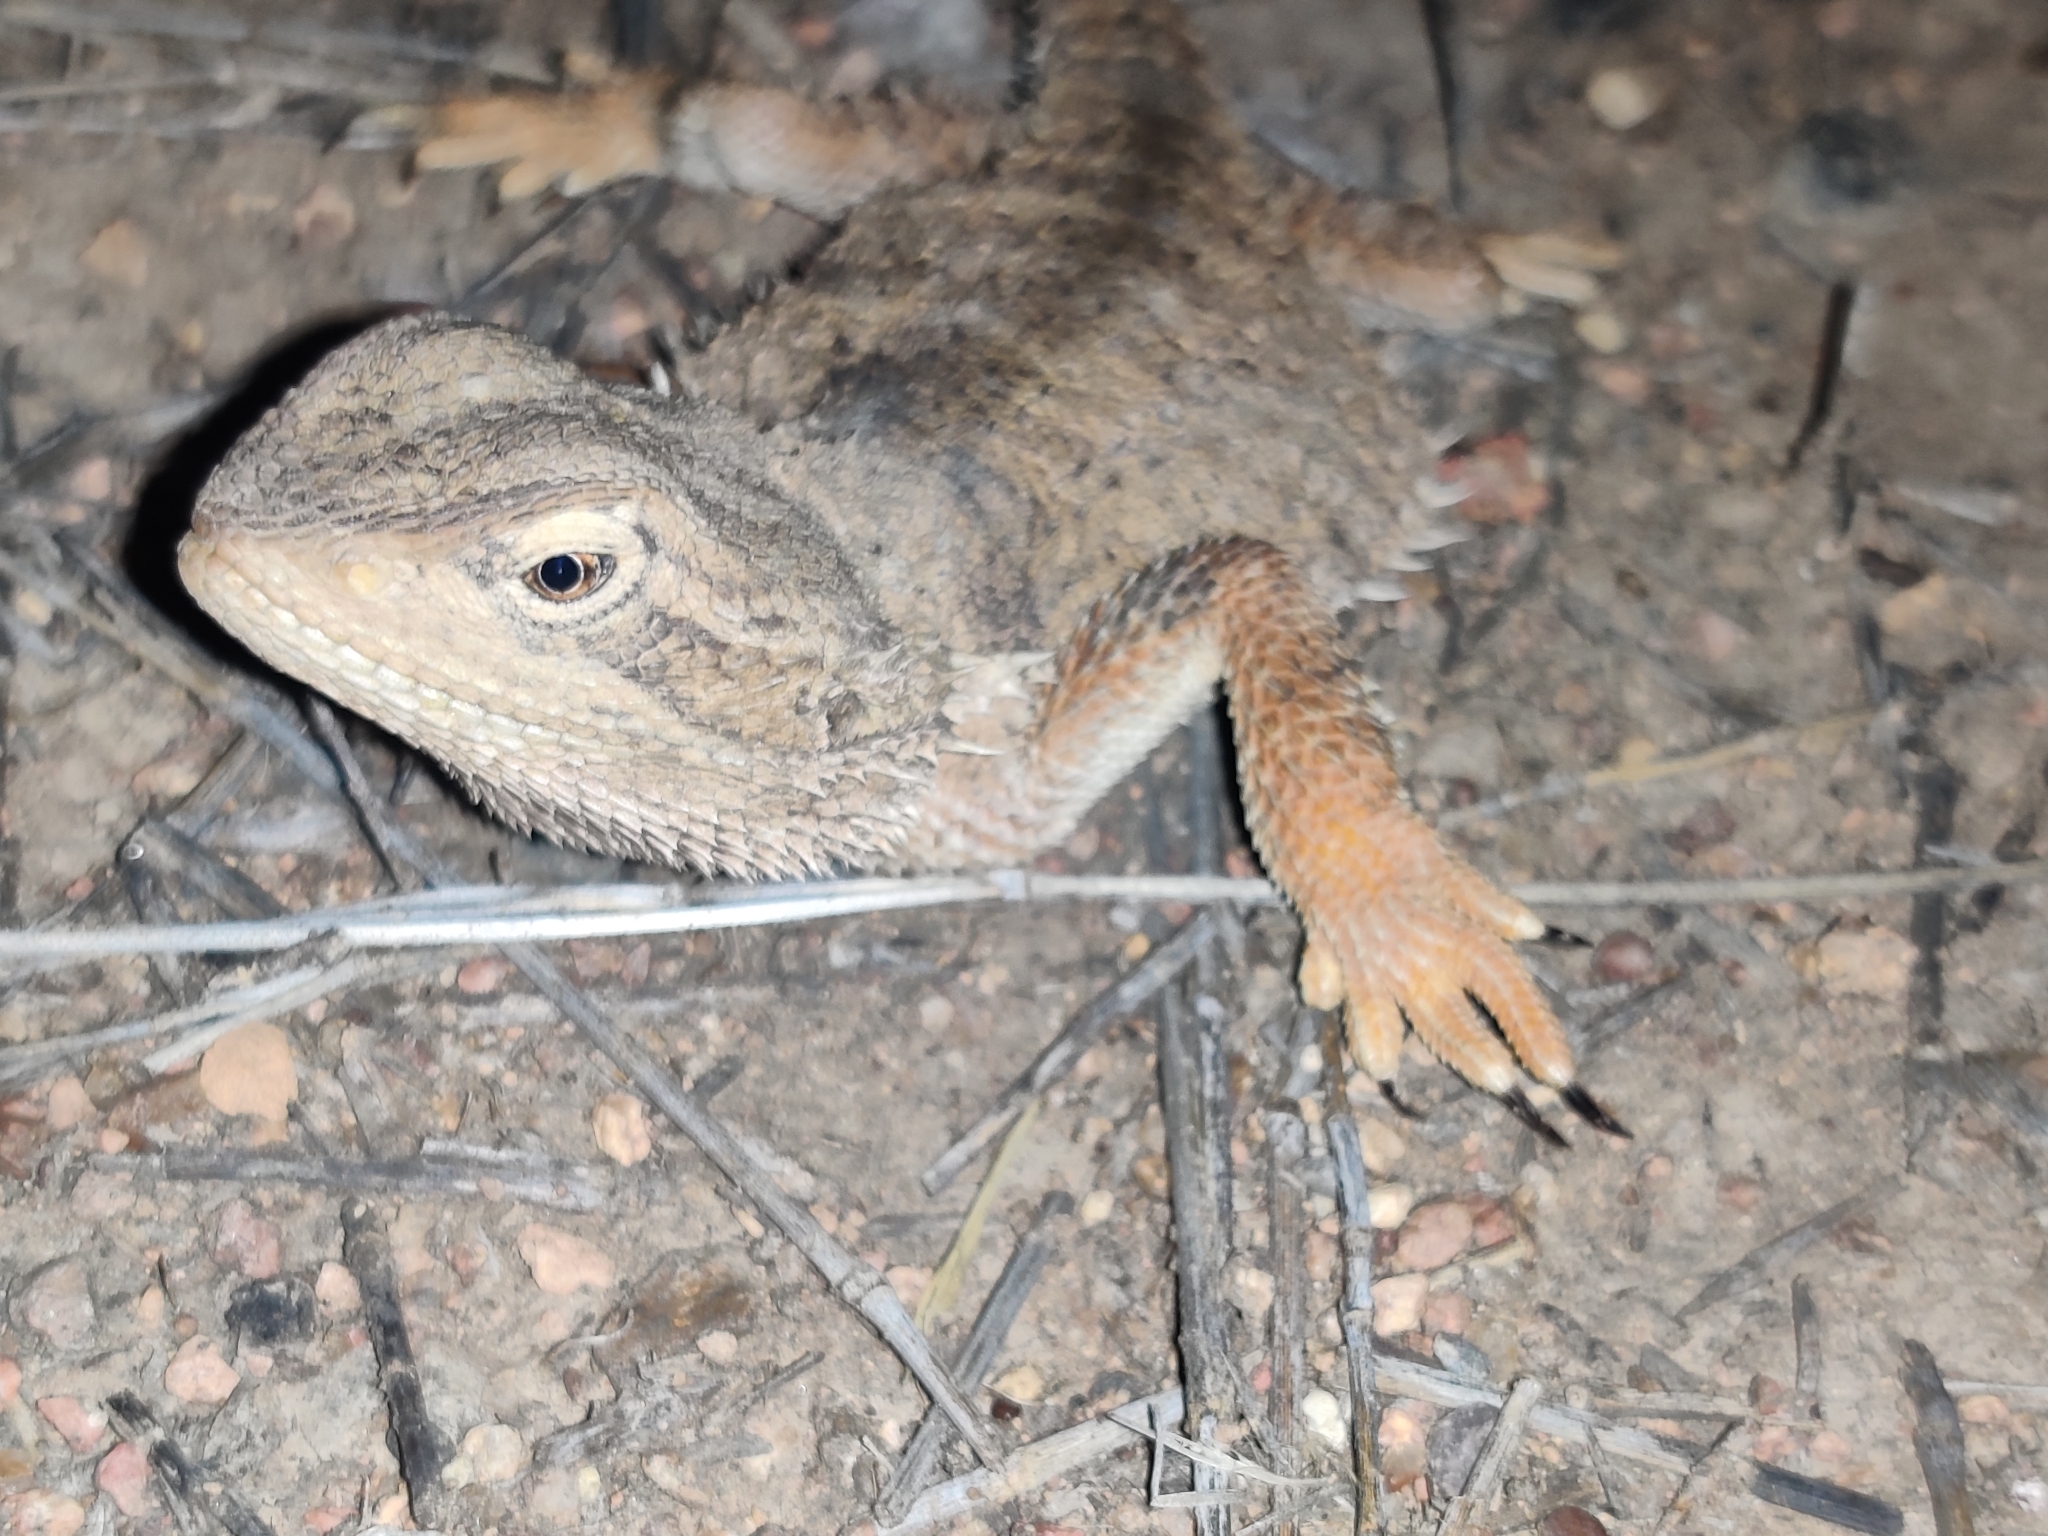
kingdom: Animalia
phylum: Chordata
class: Squamata
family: Agamidae
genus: Pogona
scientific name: Pogona henrylawsoni
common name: Black-soil bearded dragon
